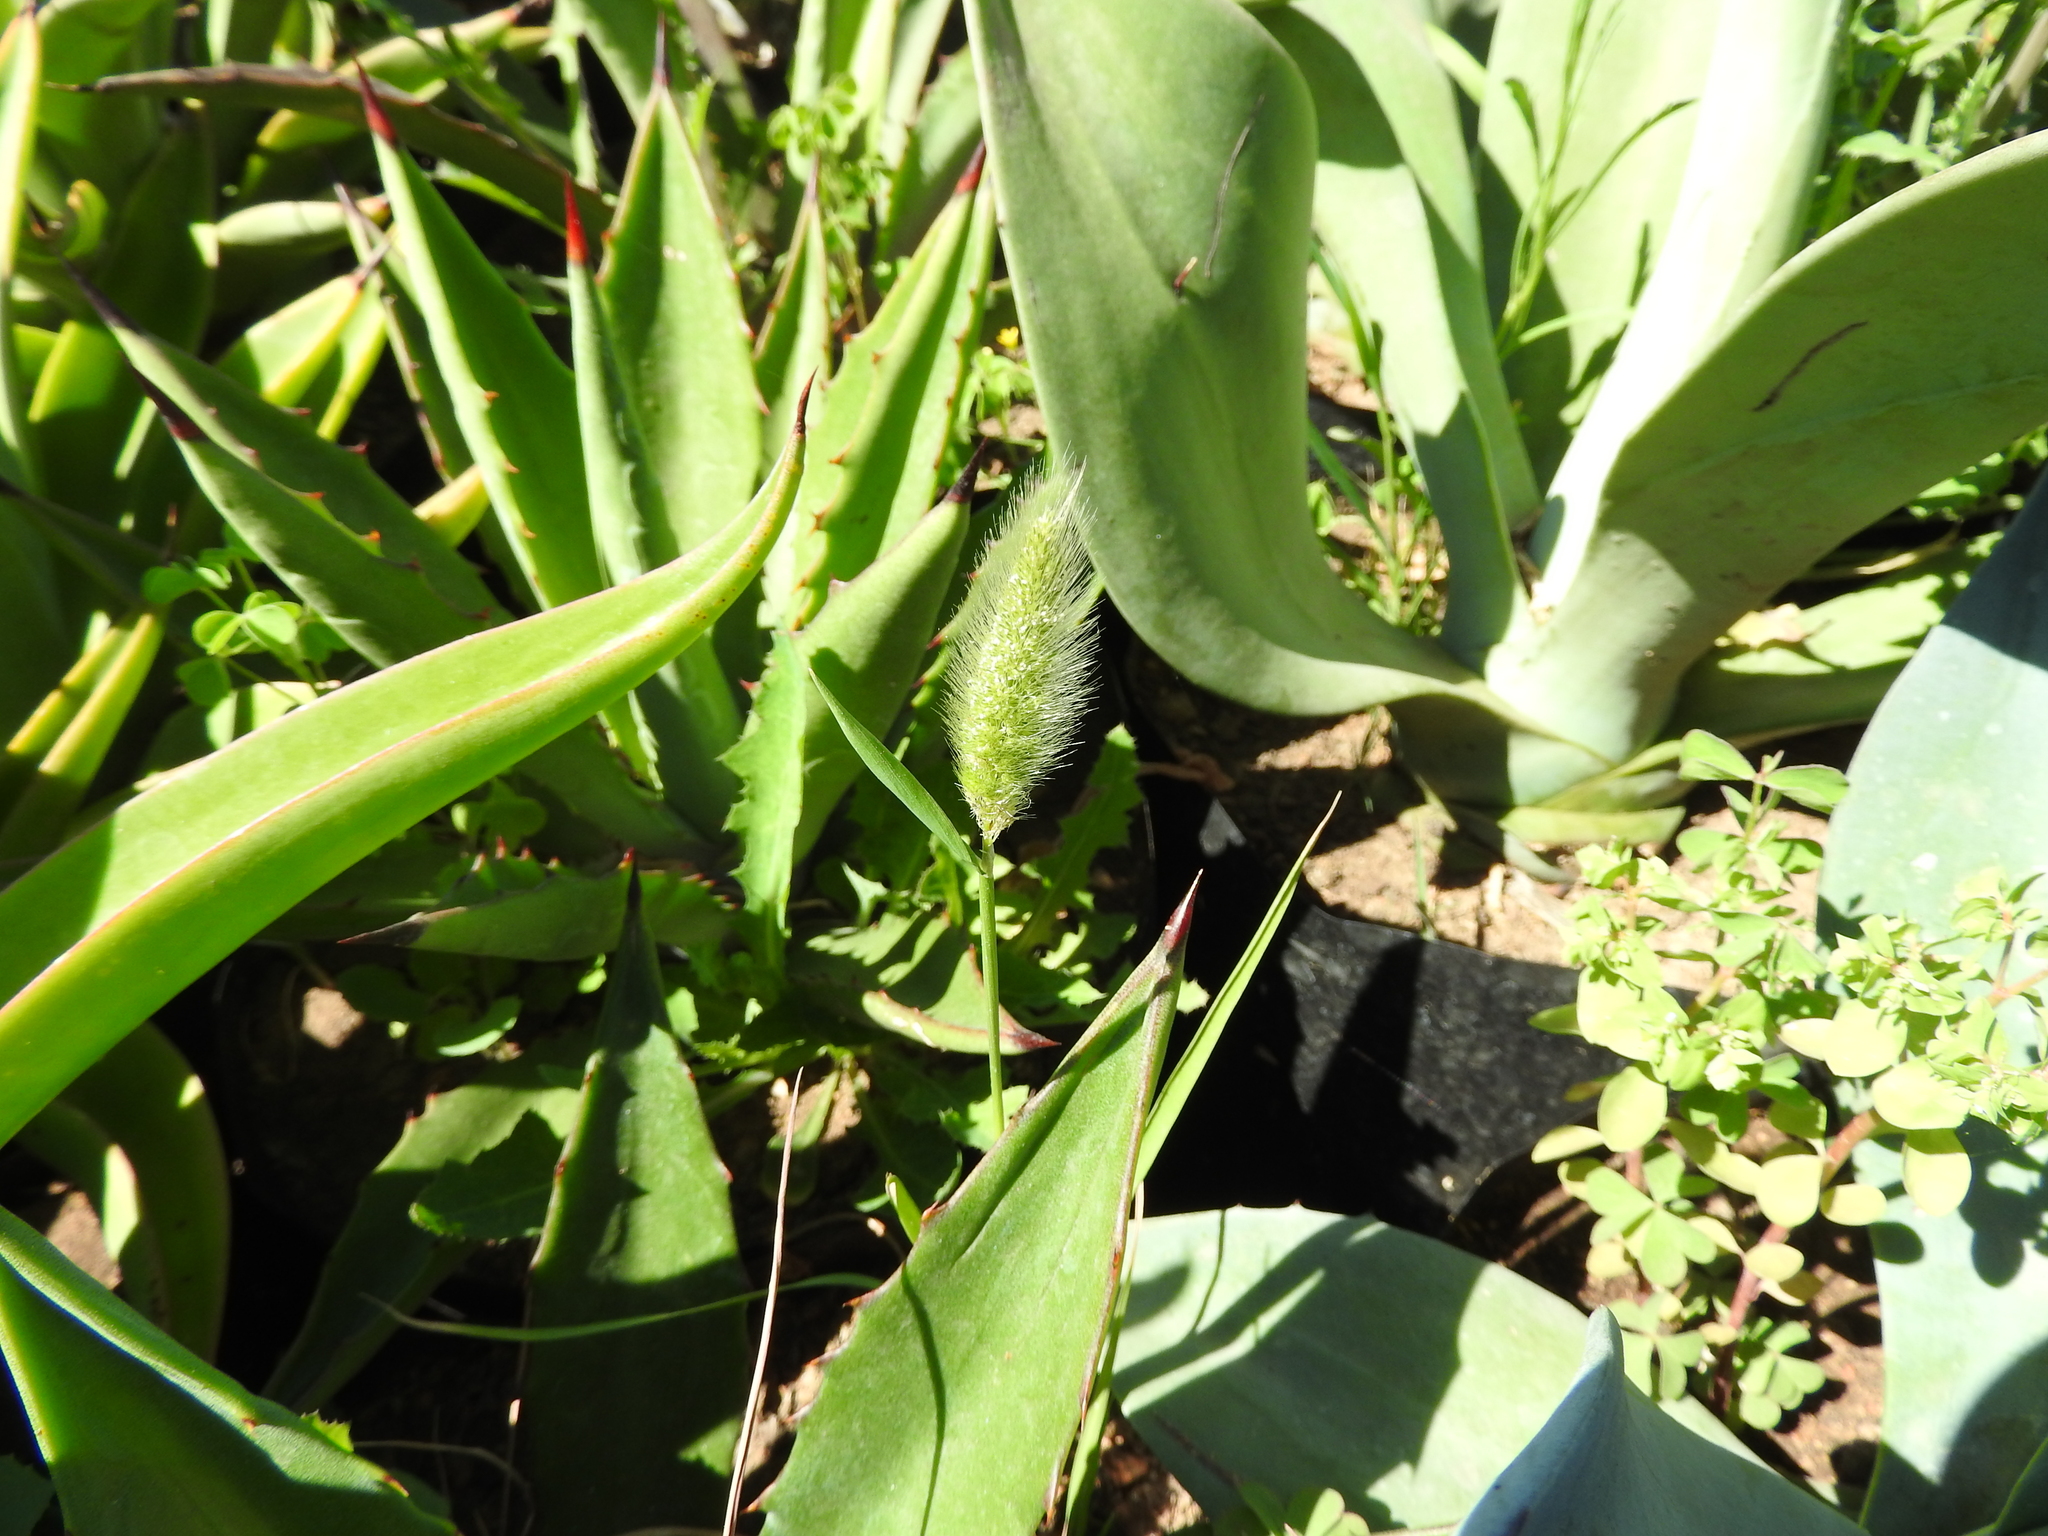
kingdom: Plantae
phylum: Tracheophyta
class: Liliopsida
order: Poales
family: Poaceae
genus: Polypogon
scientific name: Polypogon monspeliensis
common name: Annual rabbitsfoot grass
